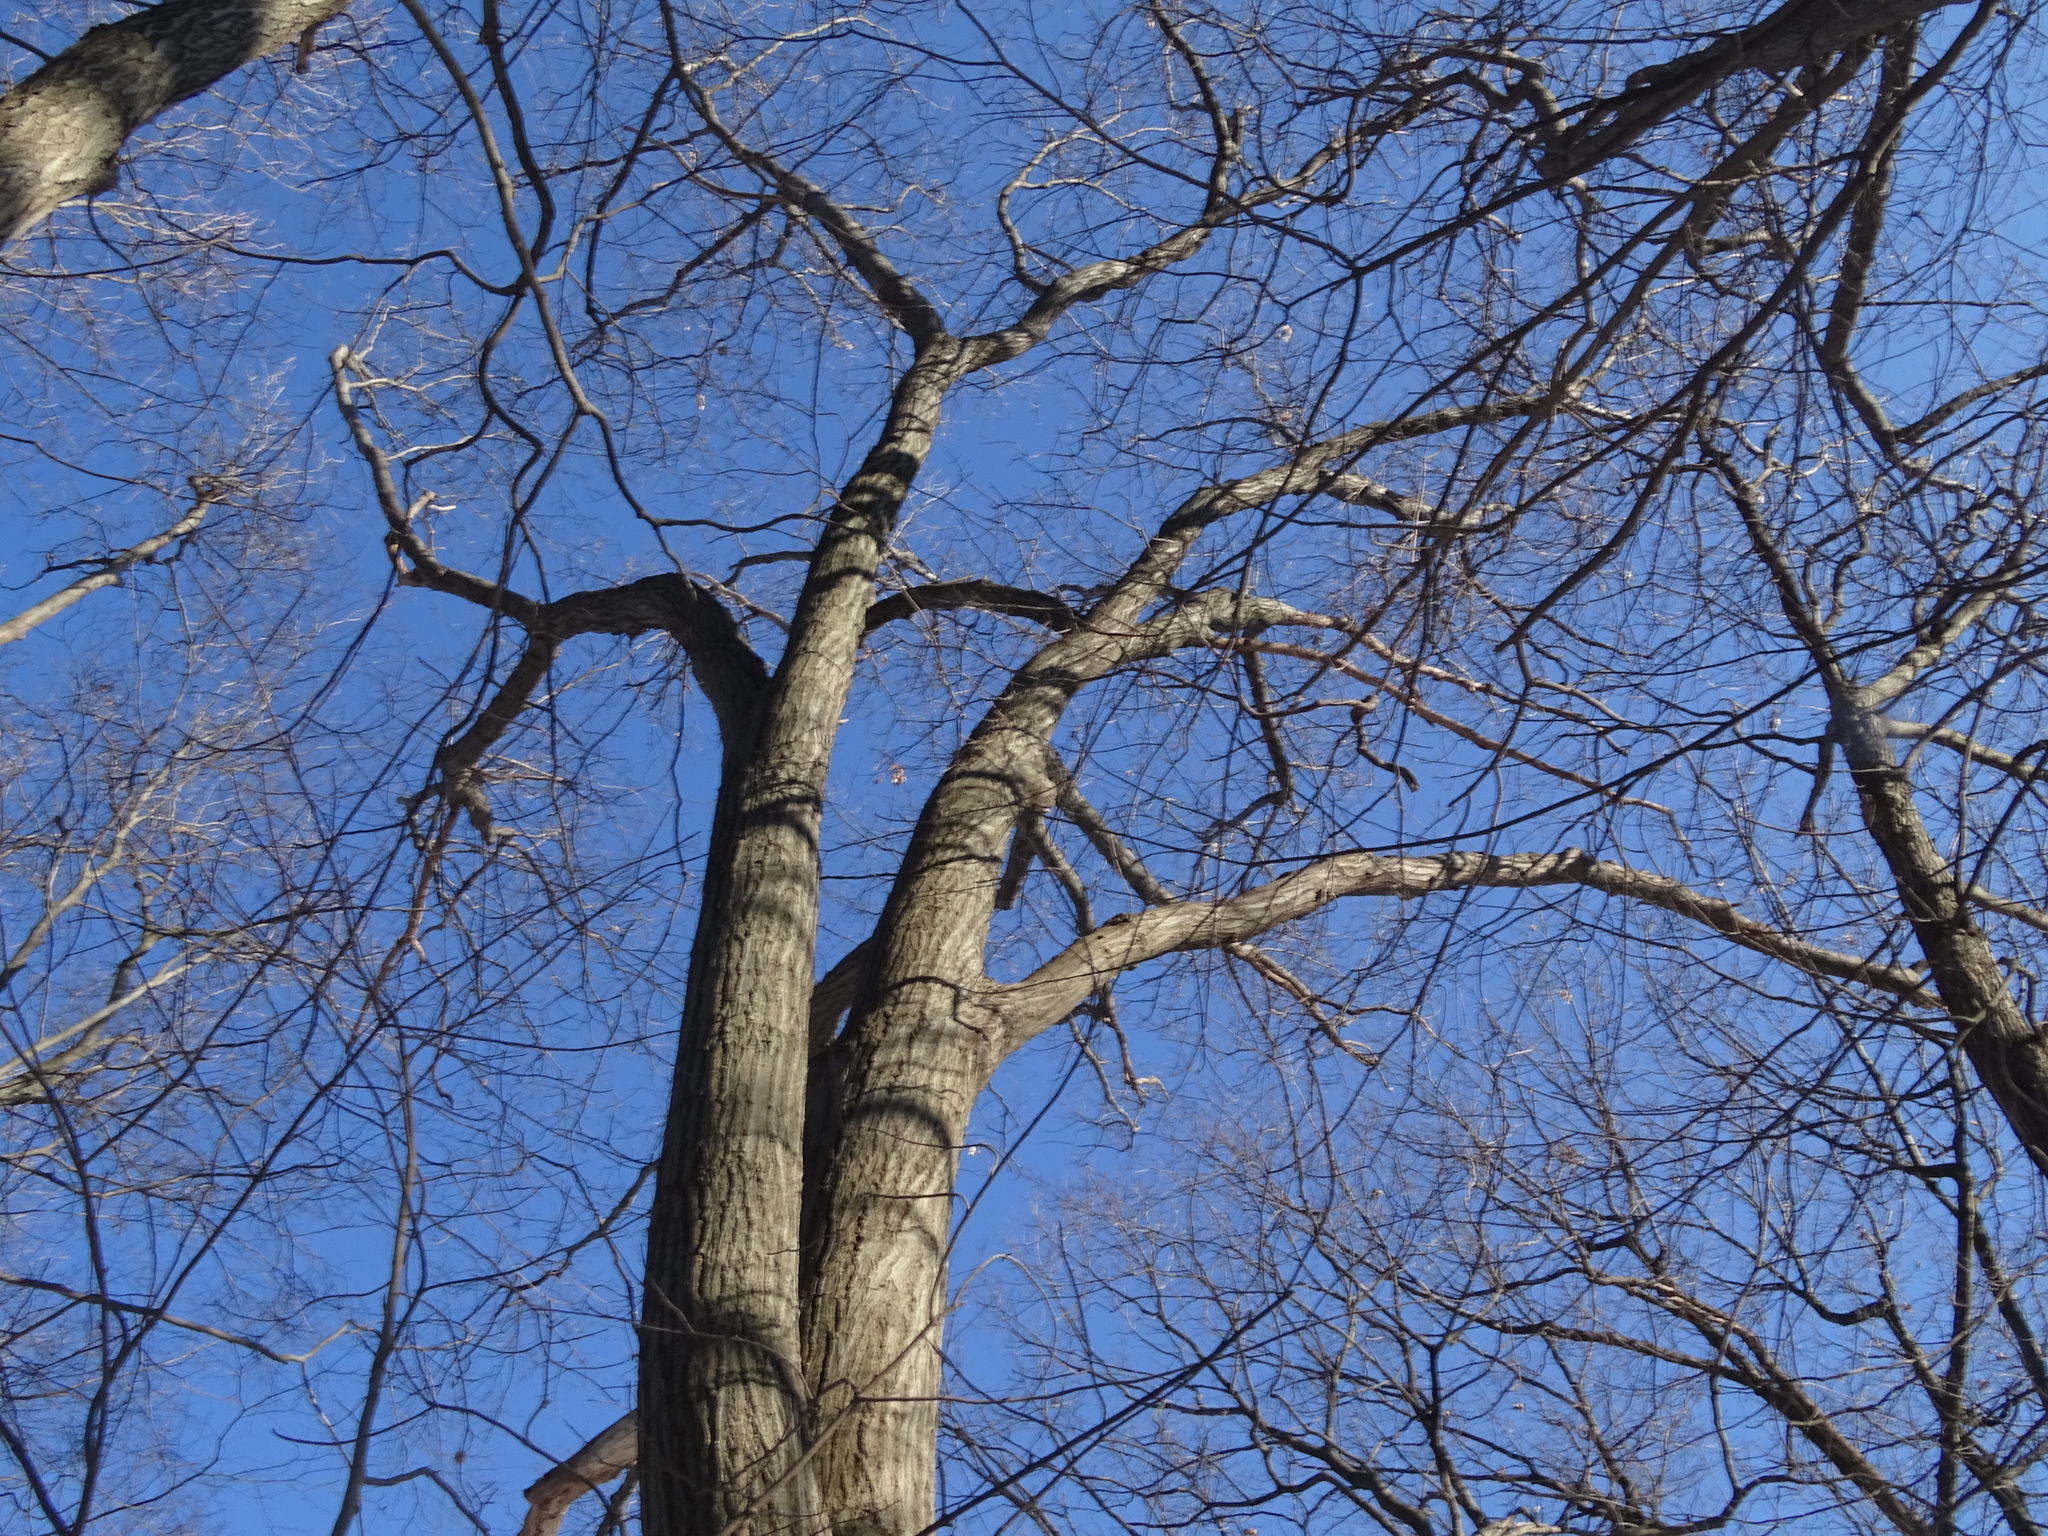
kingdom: Plantae
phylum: Tracheophyta
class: Magnoliopsida
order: Fagales
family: Fagaceae
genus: Quercus
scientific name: Quercus rubra
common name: Red oak
